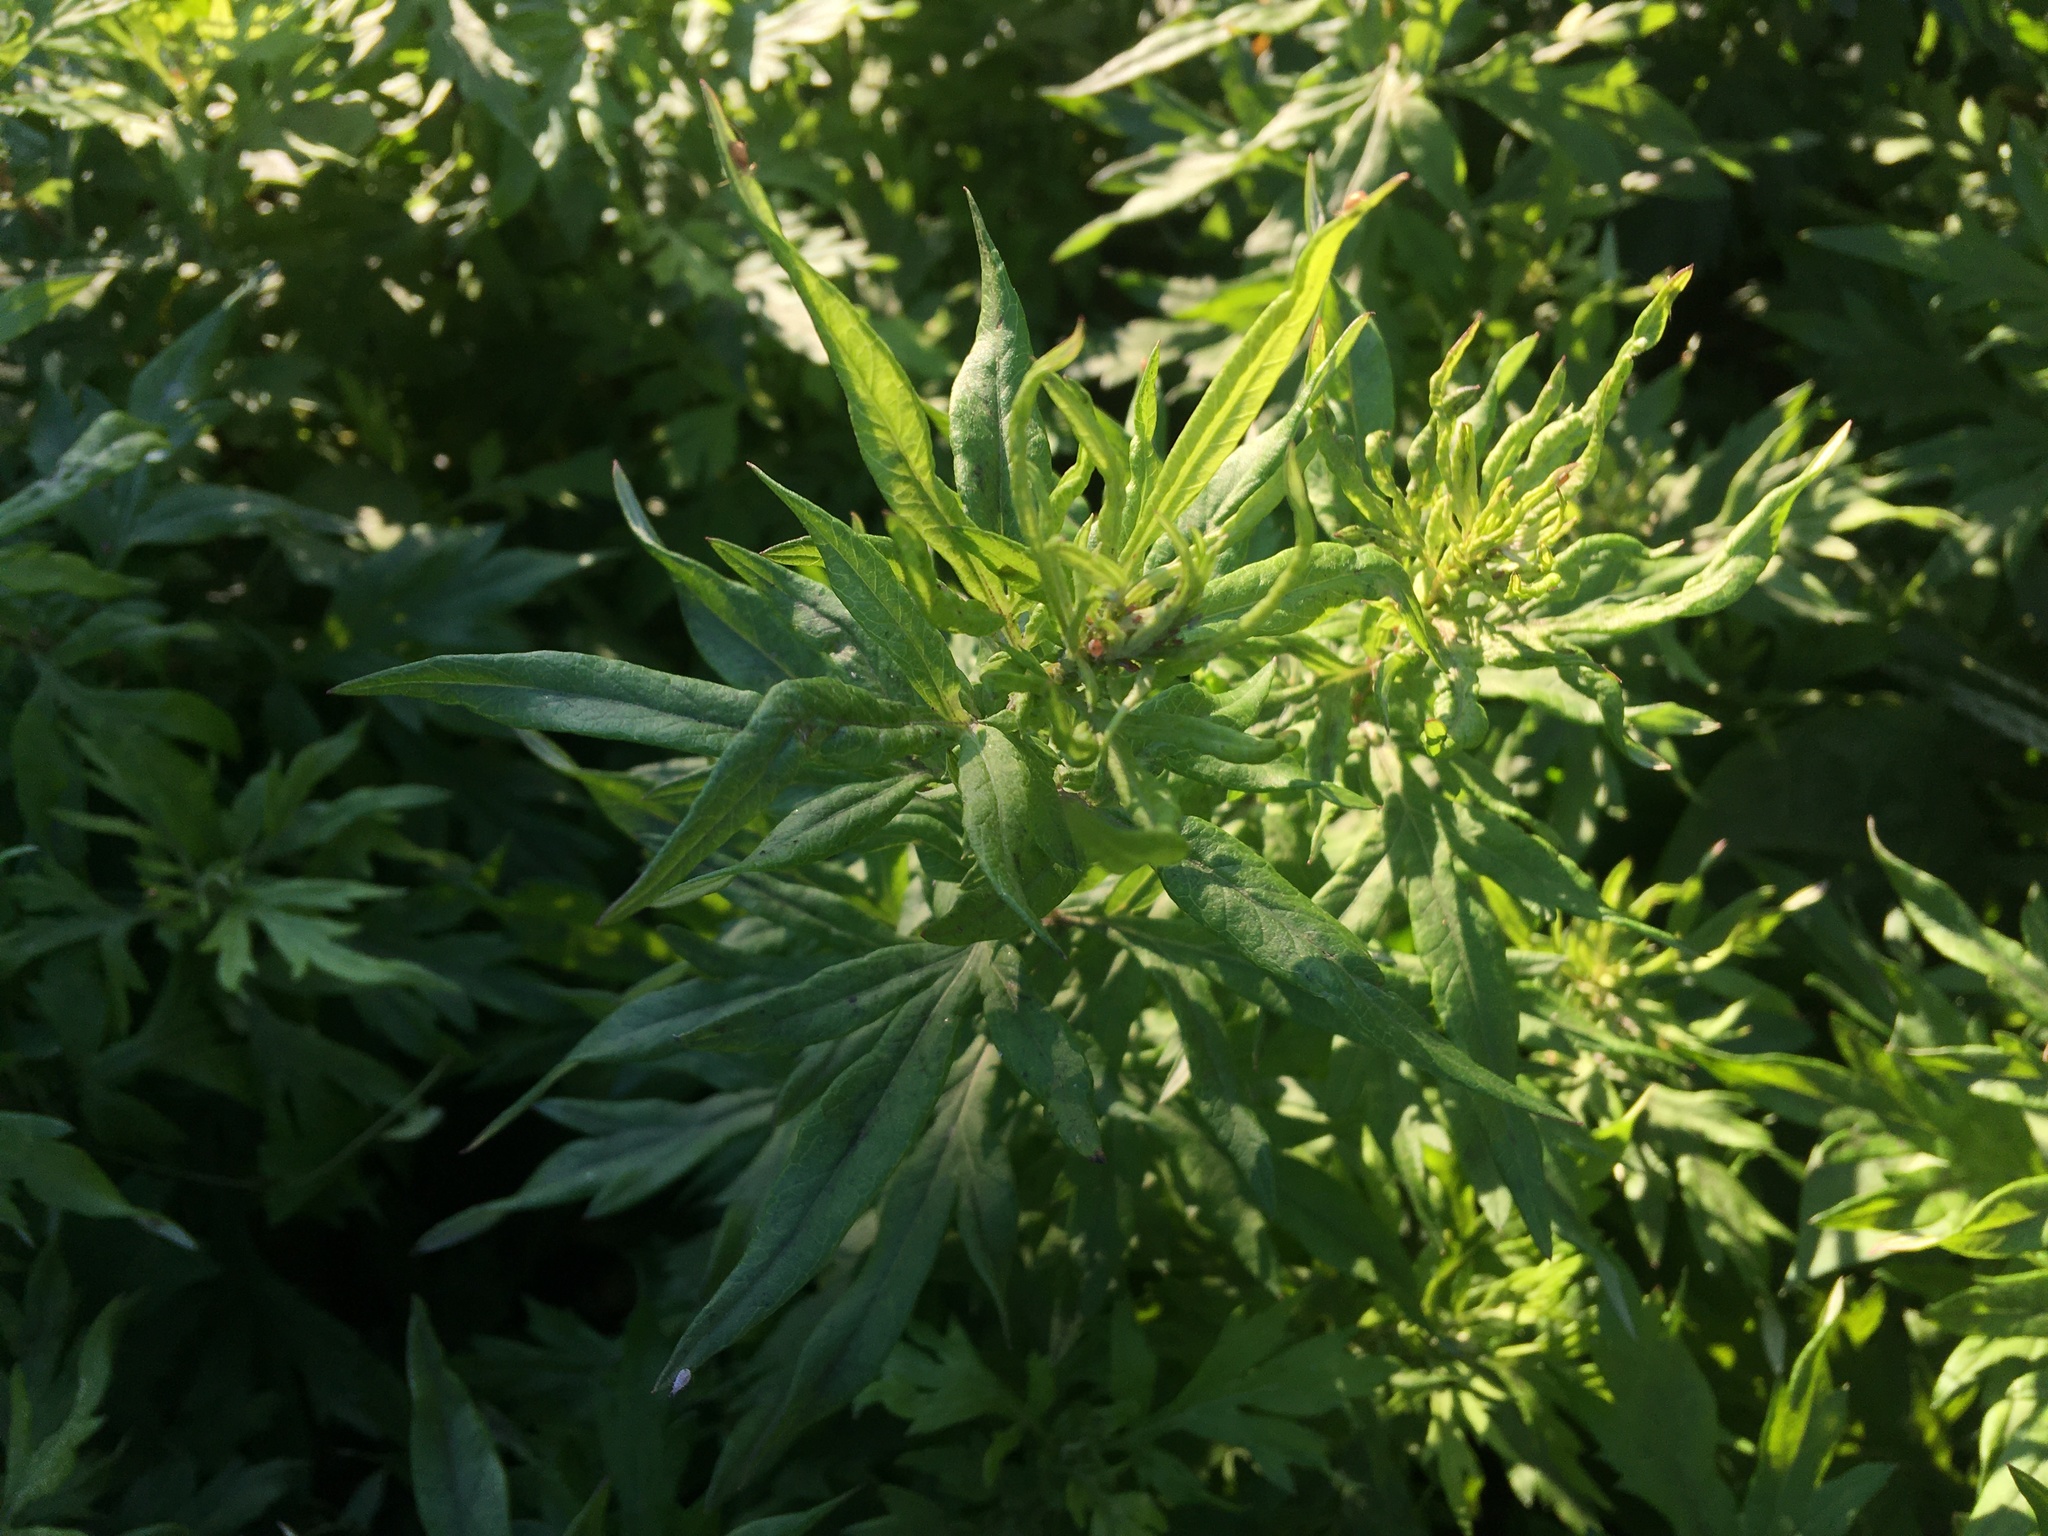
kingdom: Plantae
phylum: Tracheophyta
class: Magnoliopsida
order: Asterales
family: Asteraceae
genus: Artemisia
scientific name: Artemisia vulgaris
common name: Mugwort
